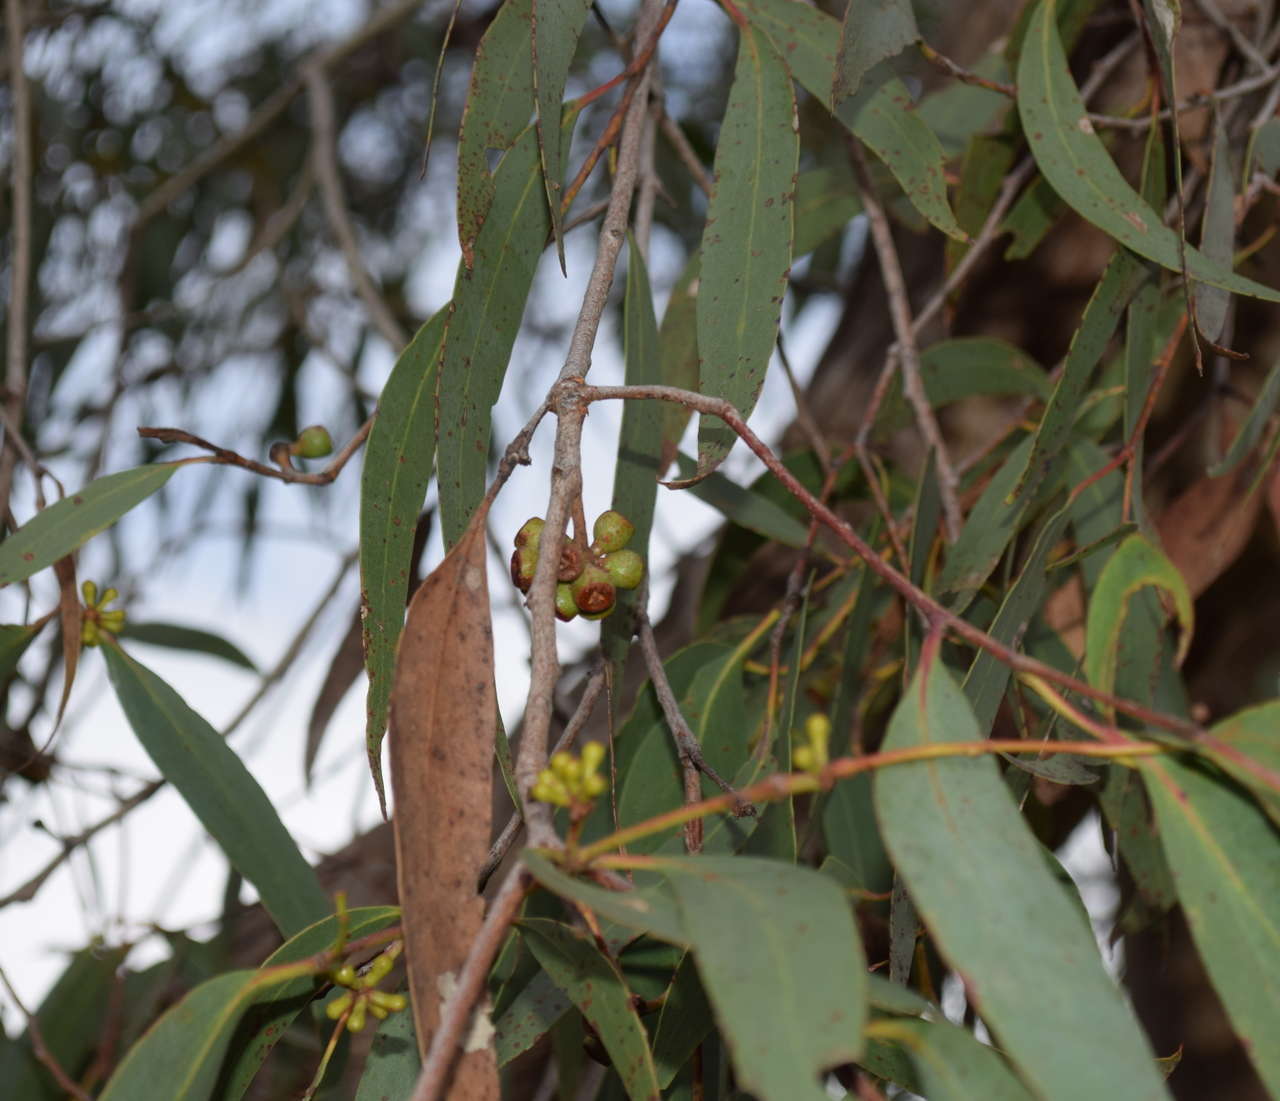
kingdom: Plantae
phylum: Tracheophyta
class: Magnoliopsida
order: Myrtales
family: Myrtaceae
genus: Eucalyptus
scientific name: Eucalyptus falciformis
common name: Grampians peppermint
